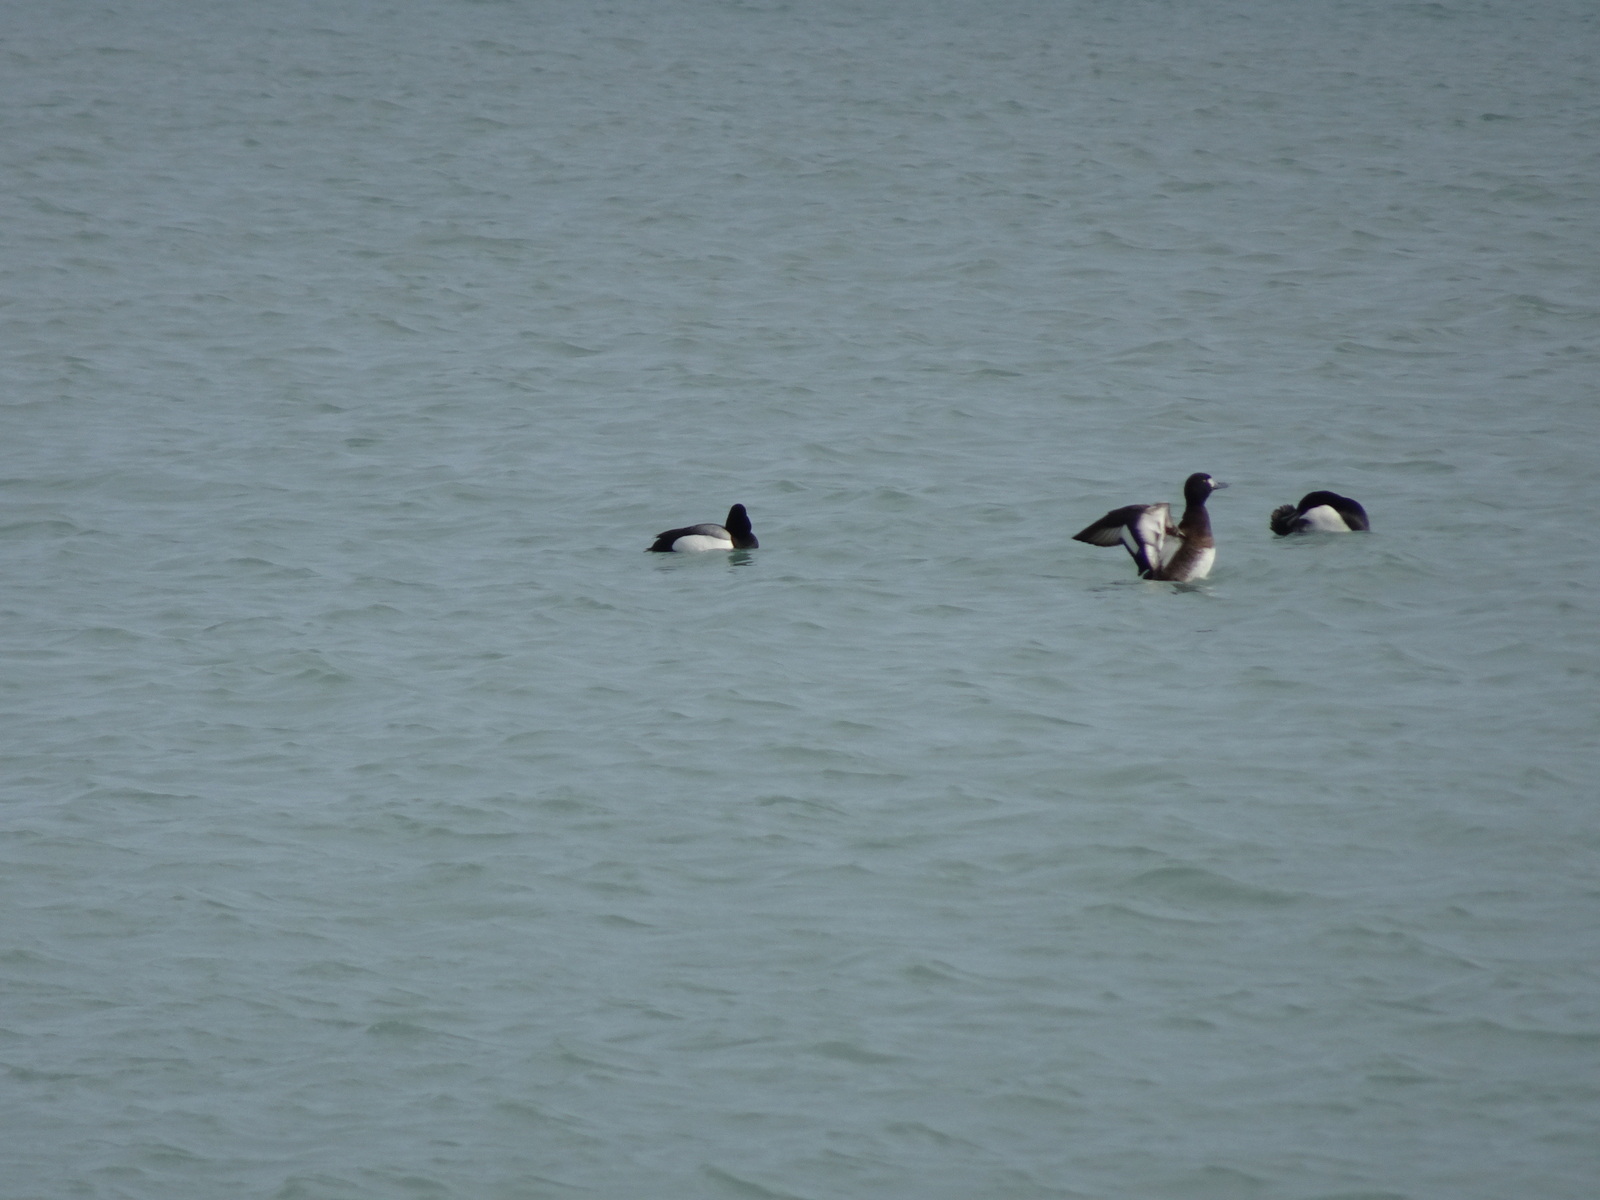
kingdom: Animalia
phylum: Chordata
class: Aves
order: Anseriformes
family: Anatidae
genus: Aythya
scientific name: Aythya marila
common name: Greater scaup
